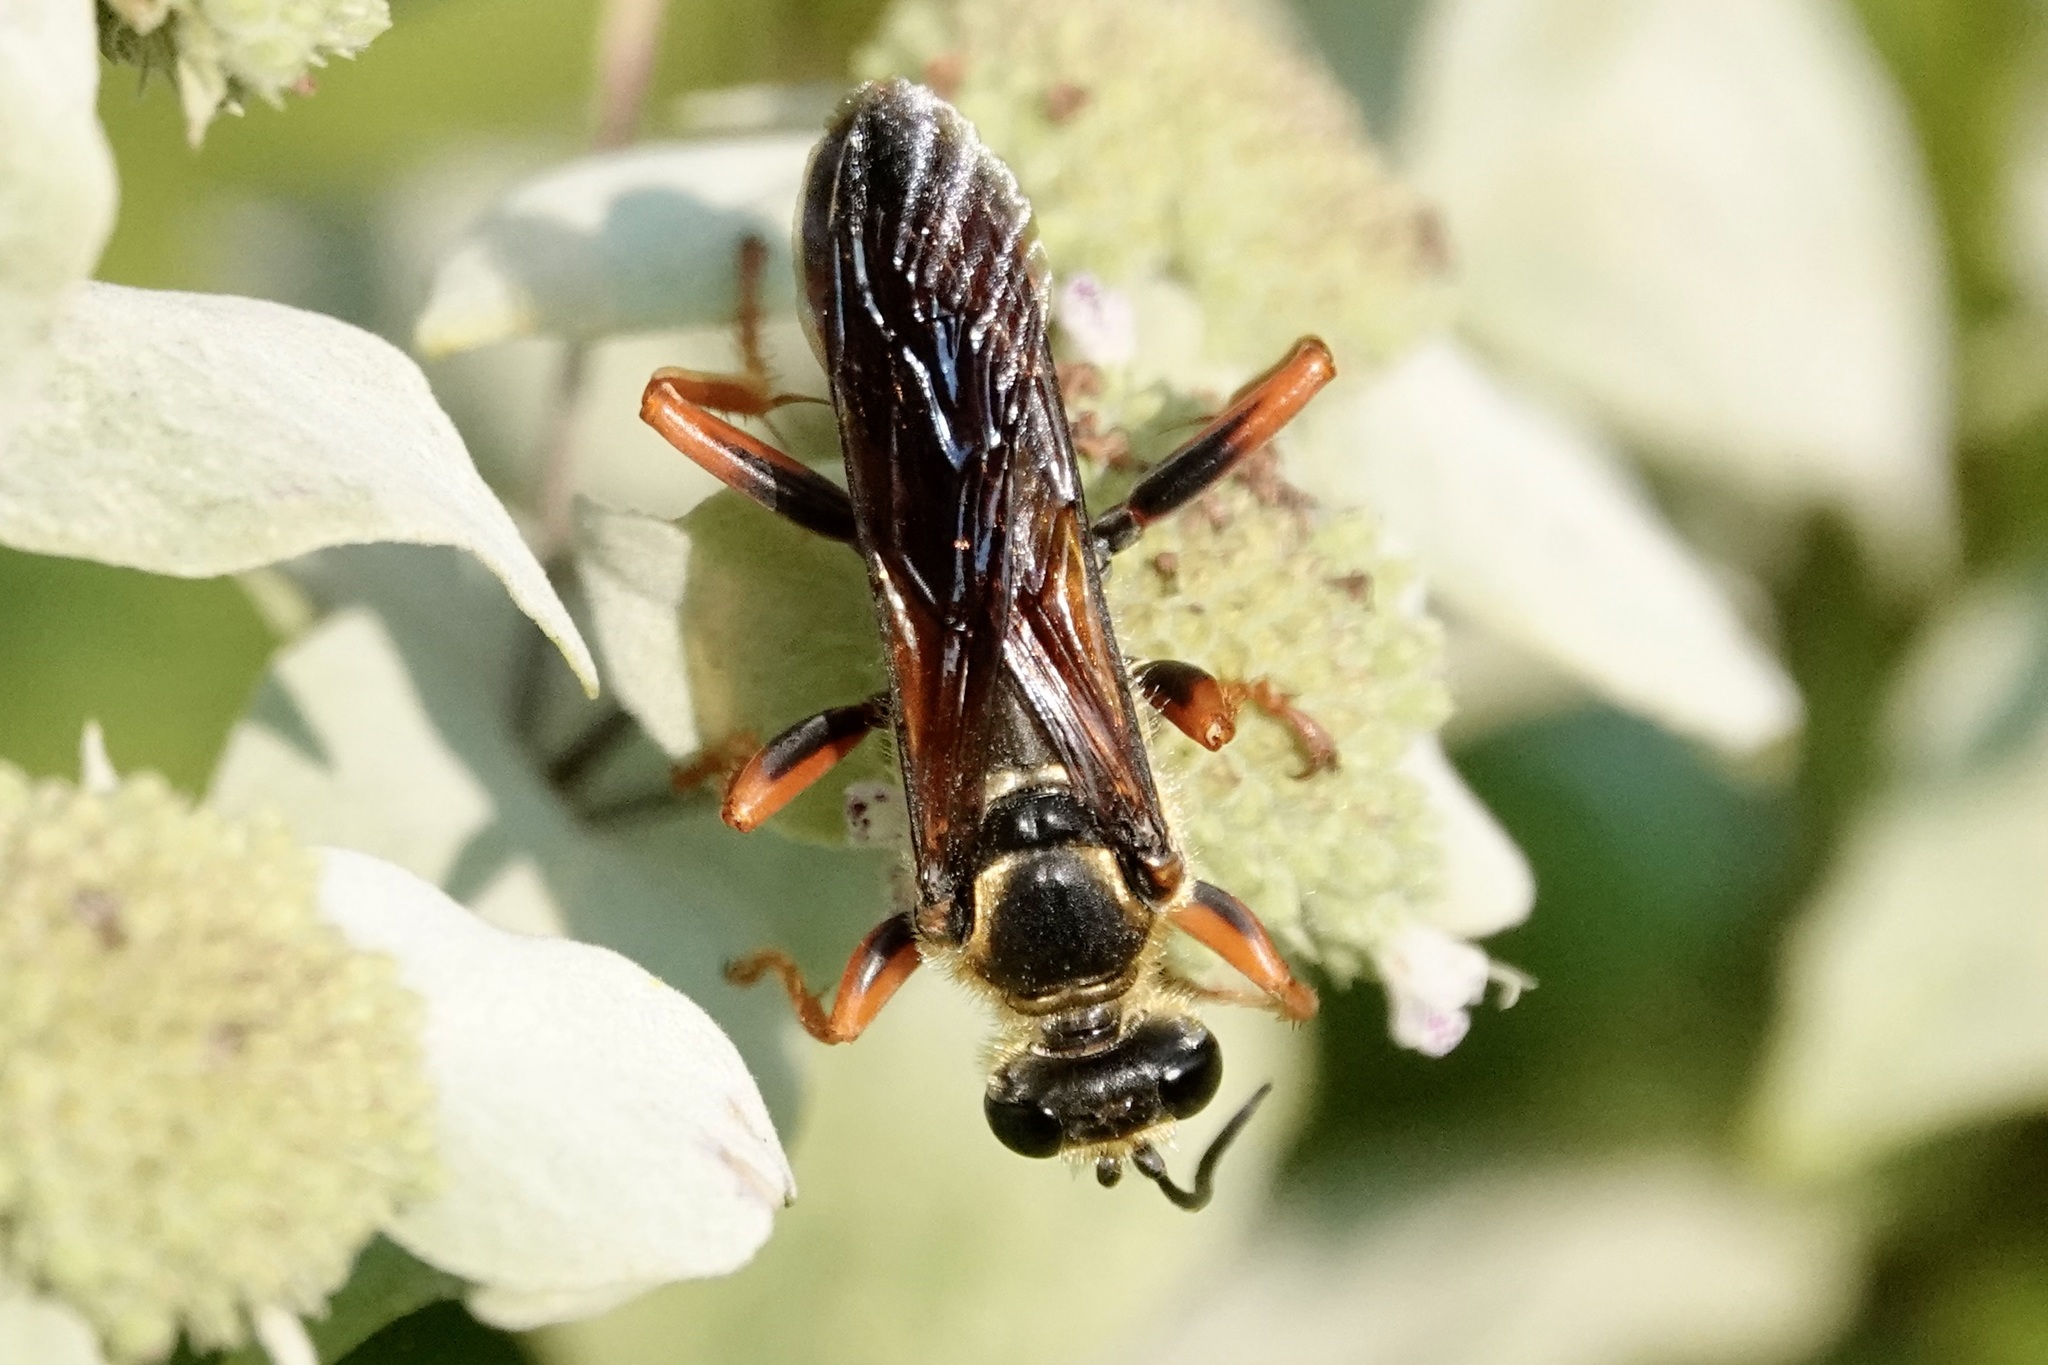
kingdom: Animalia
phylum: Arthropoda
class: Insecta
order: Hymenoptera
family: Sphecidae
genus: Sphex
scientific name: Sphex ichneumoneus
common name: Great golden digger wasp
